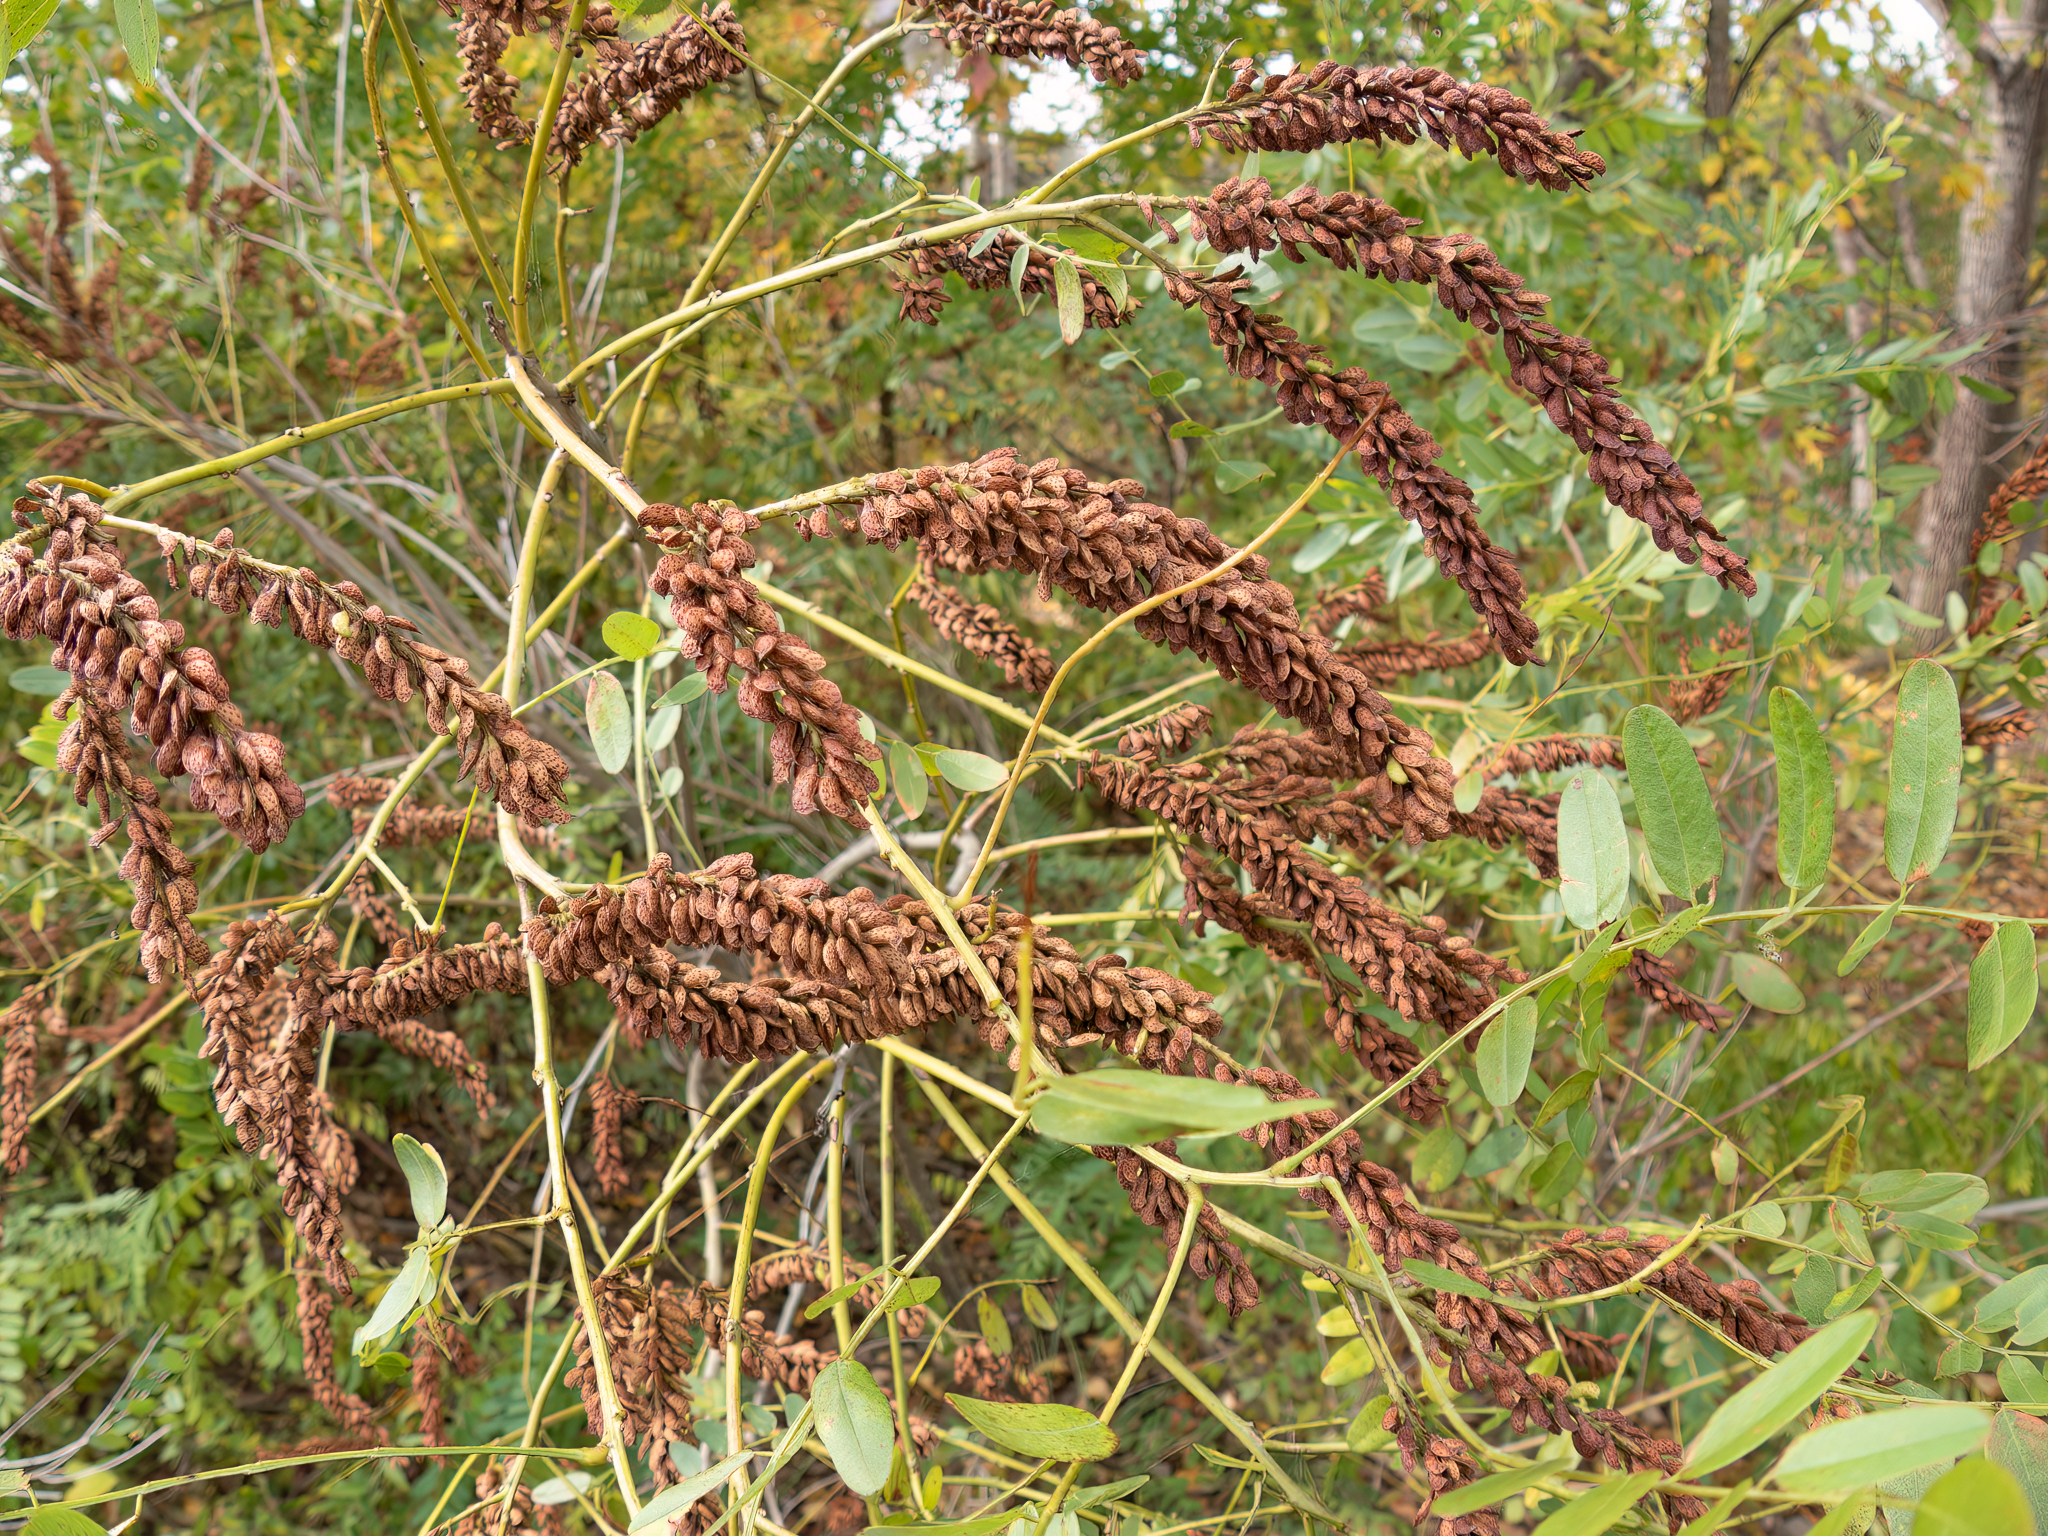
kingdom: Plantae
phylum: Tracheophyta
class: Magnoliopsida
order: Fabales
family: Fabaceae
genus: Amorpha
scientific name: Amorpha fruticosa
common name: False indigo
